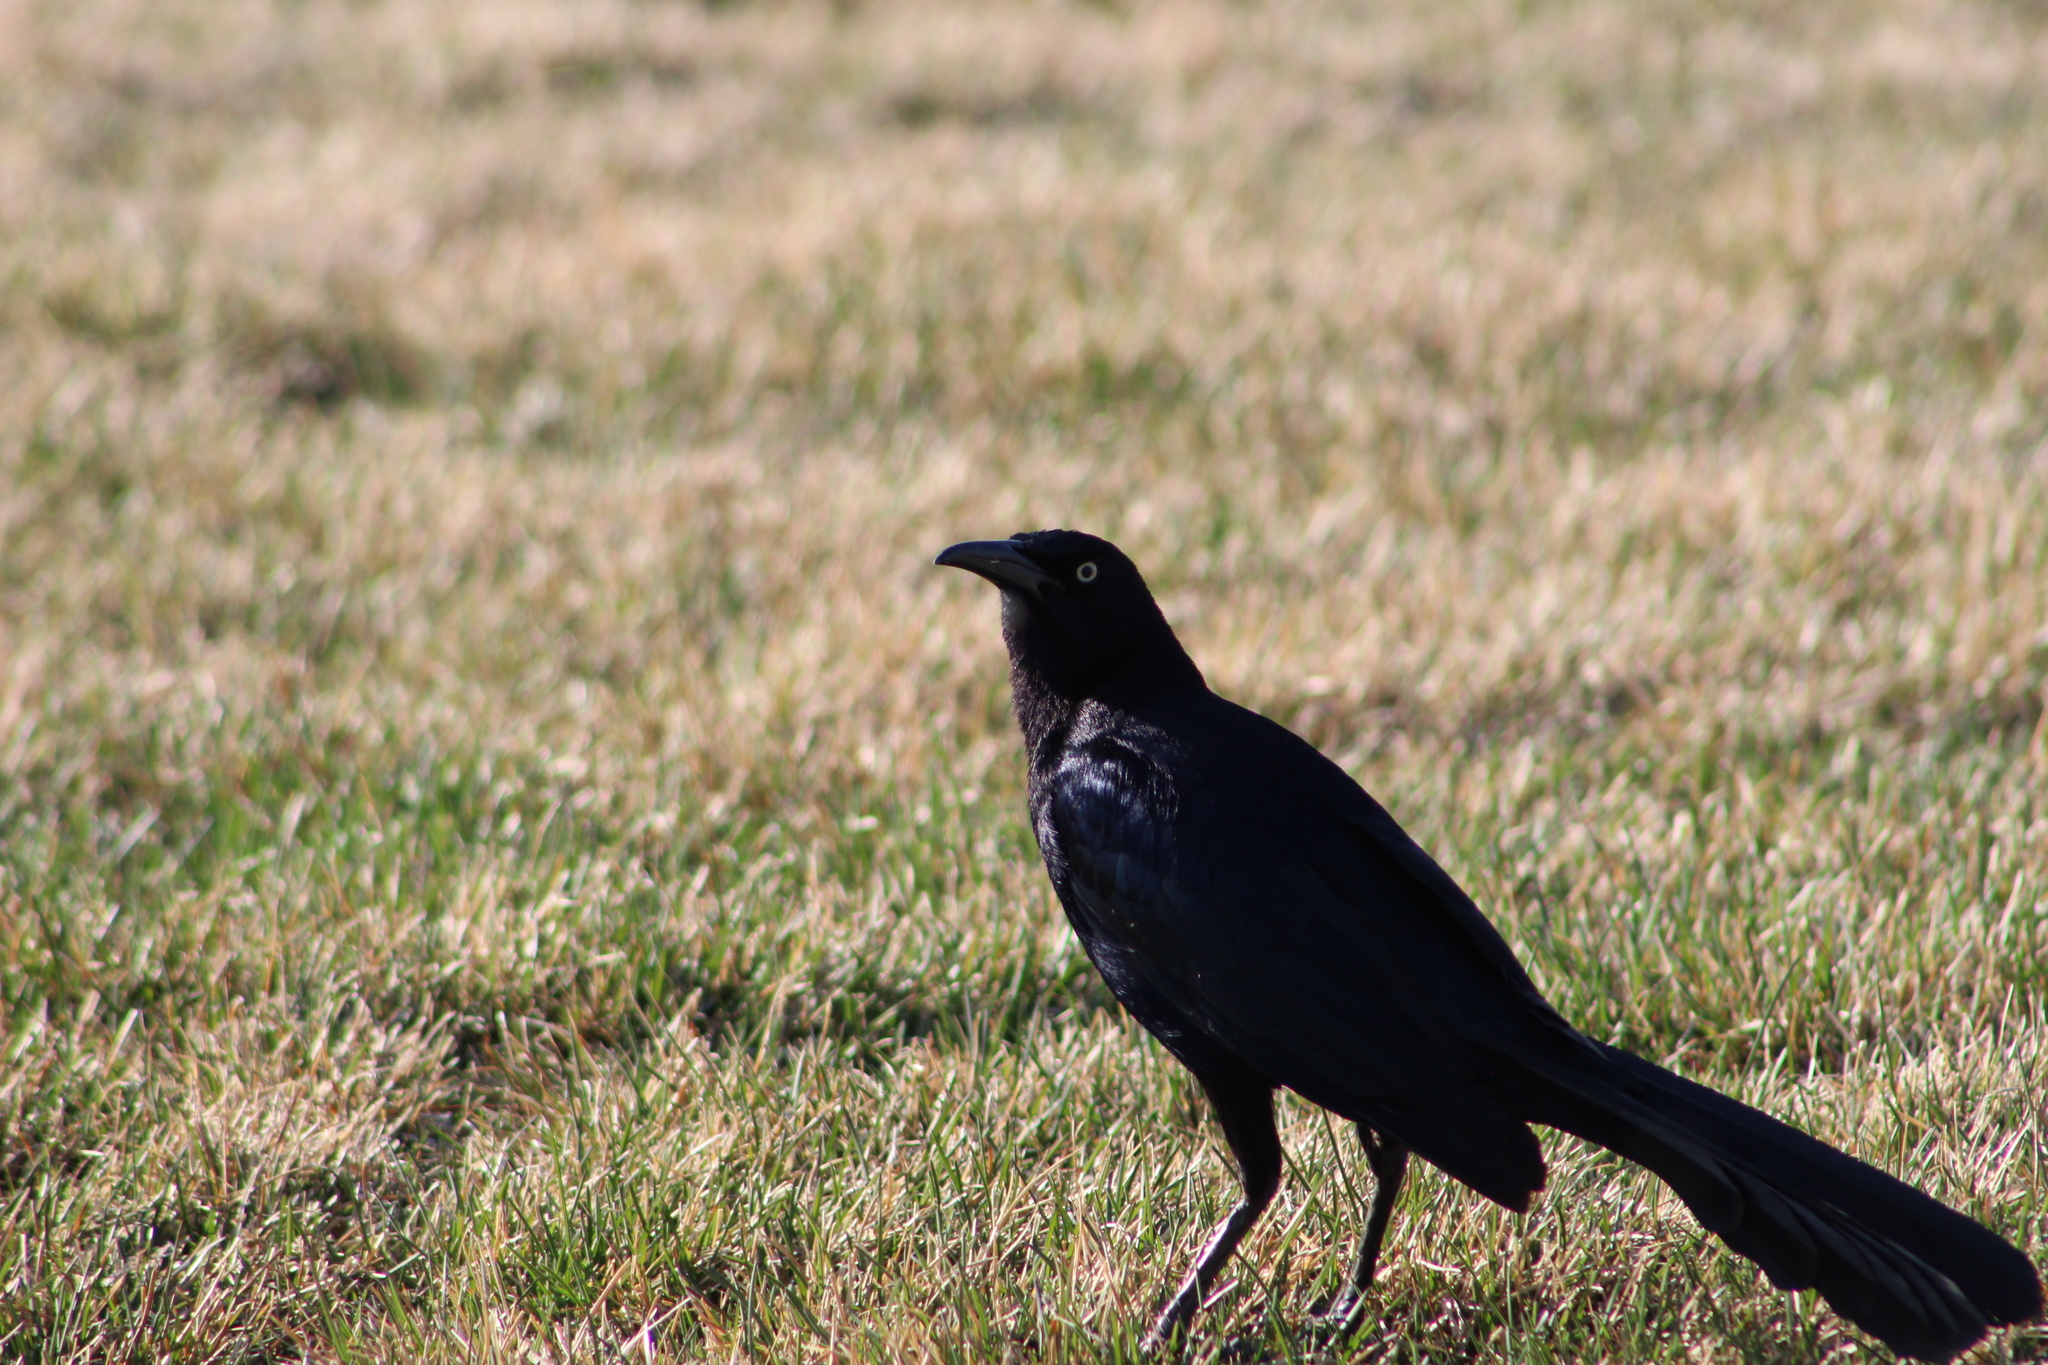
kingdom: Animalia
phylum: Chordata
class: Aves
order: Passeriformes
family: Icteridae
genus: Quiscalus
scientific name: Quiscalus mexicanus
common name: Great-tailed grackle
